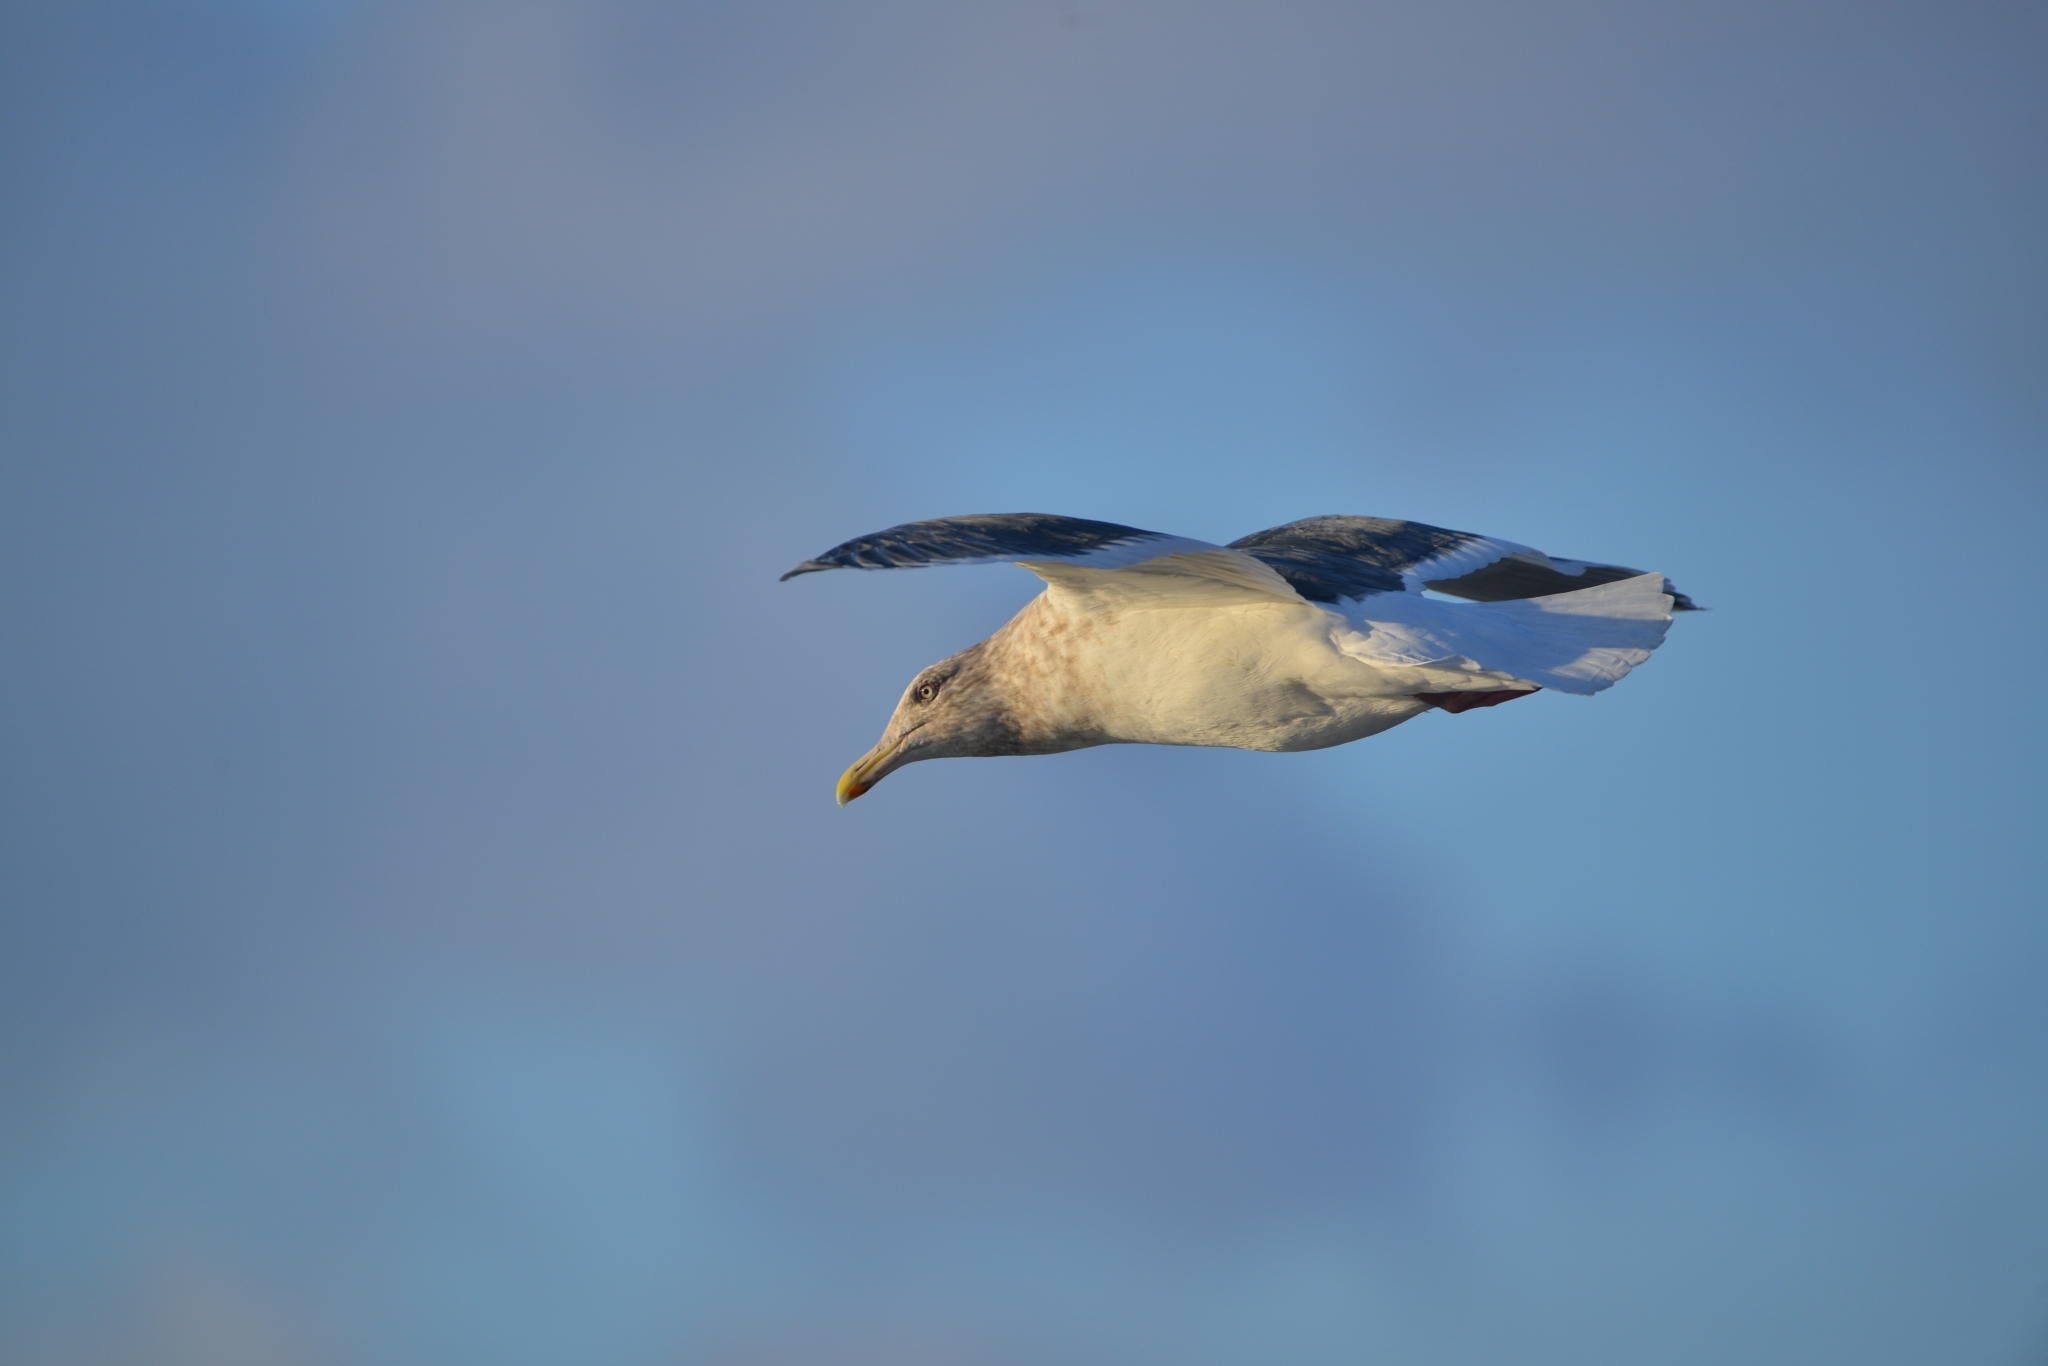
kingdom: Animalia
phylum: Chordata
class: Aves
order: Charadriiformes
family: Laridae
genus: Larus
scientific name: Larus schistisagus
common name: Slaty-backed gull
